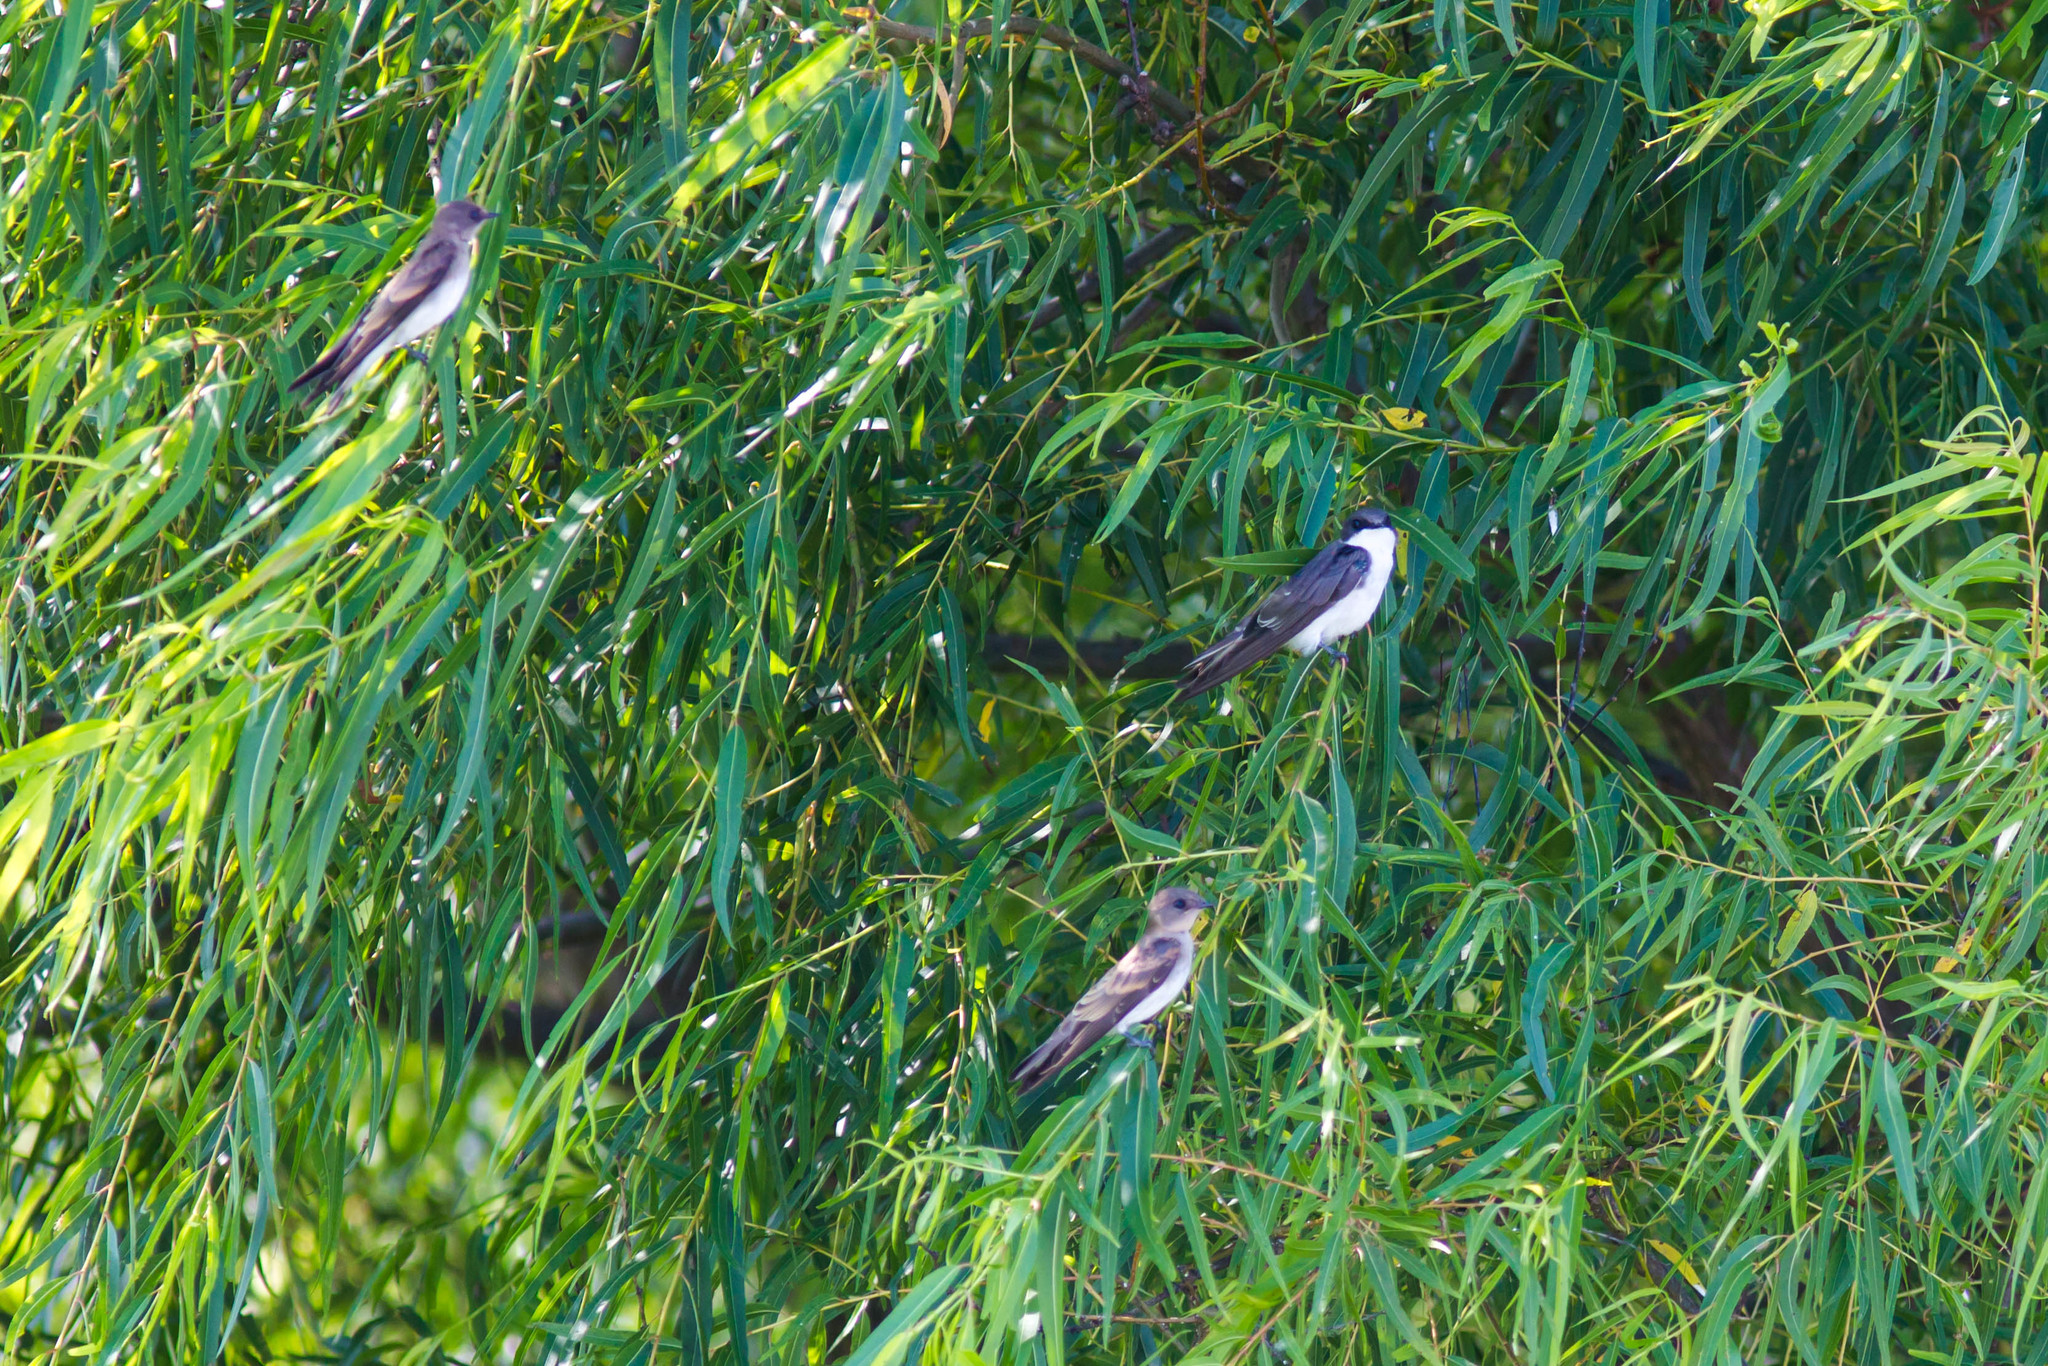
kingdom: Animalia
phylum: Chordata
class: Aves
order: Passeriformes
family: Hirundinidae
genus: Tachycineta
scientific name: Tachycineta bicolor
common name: Tree swallow
